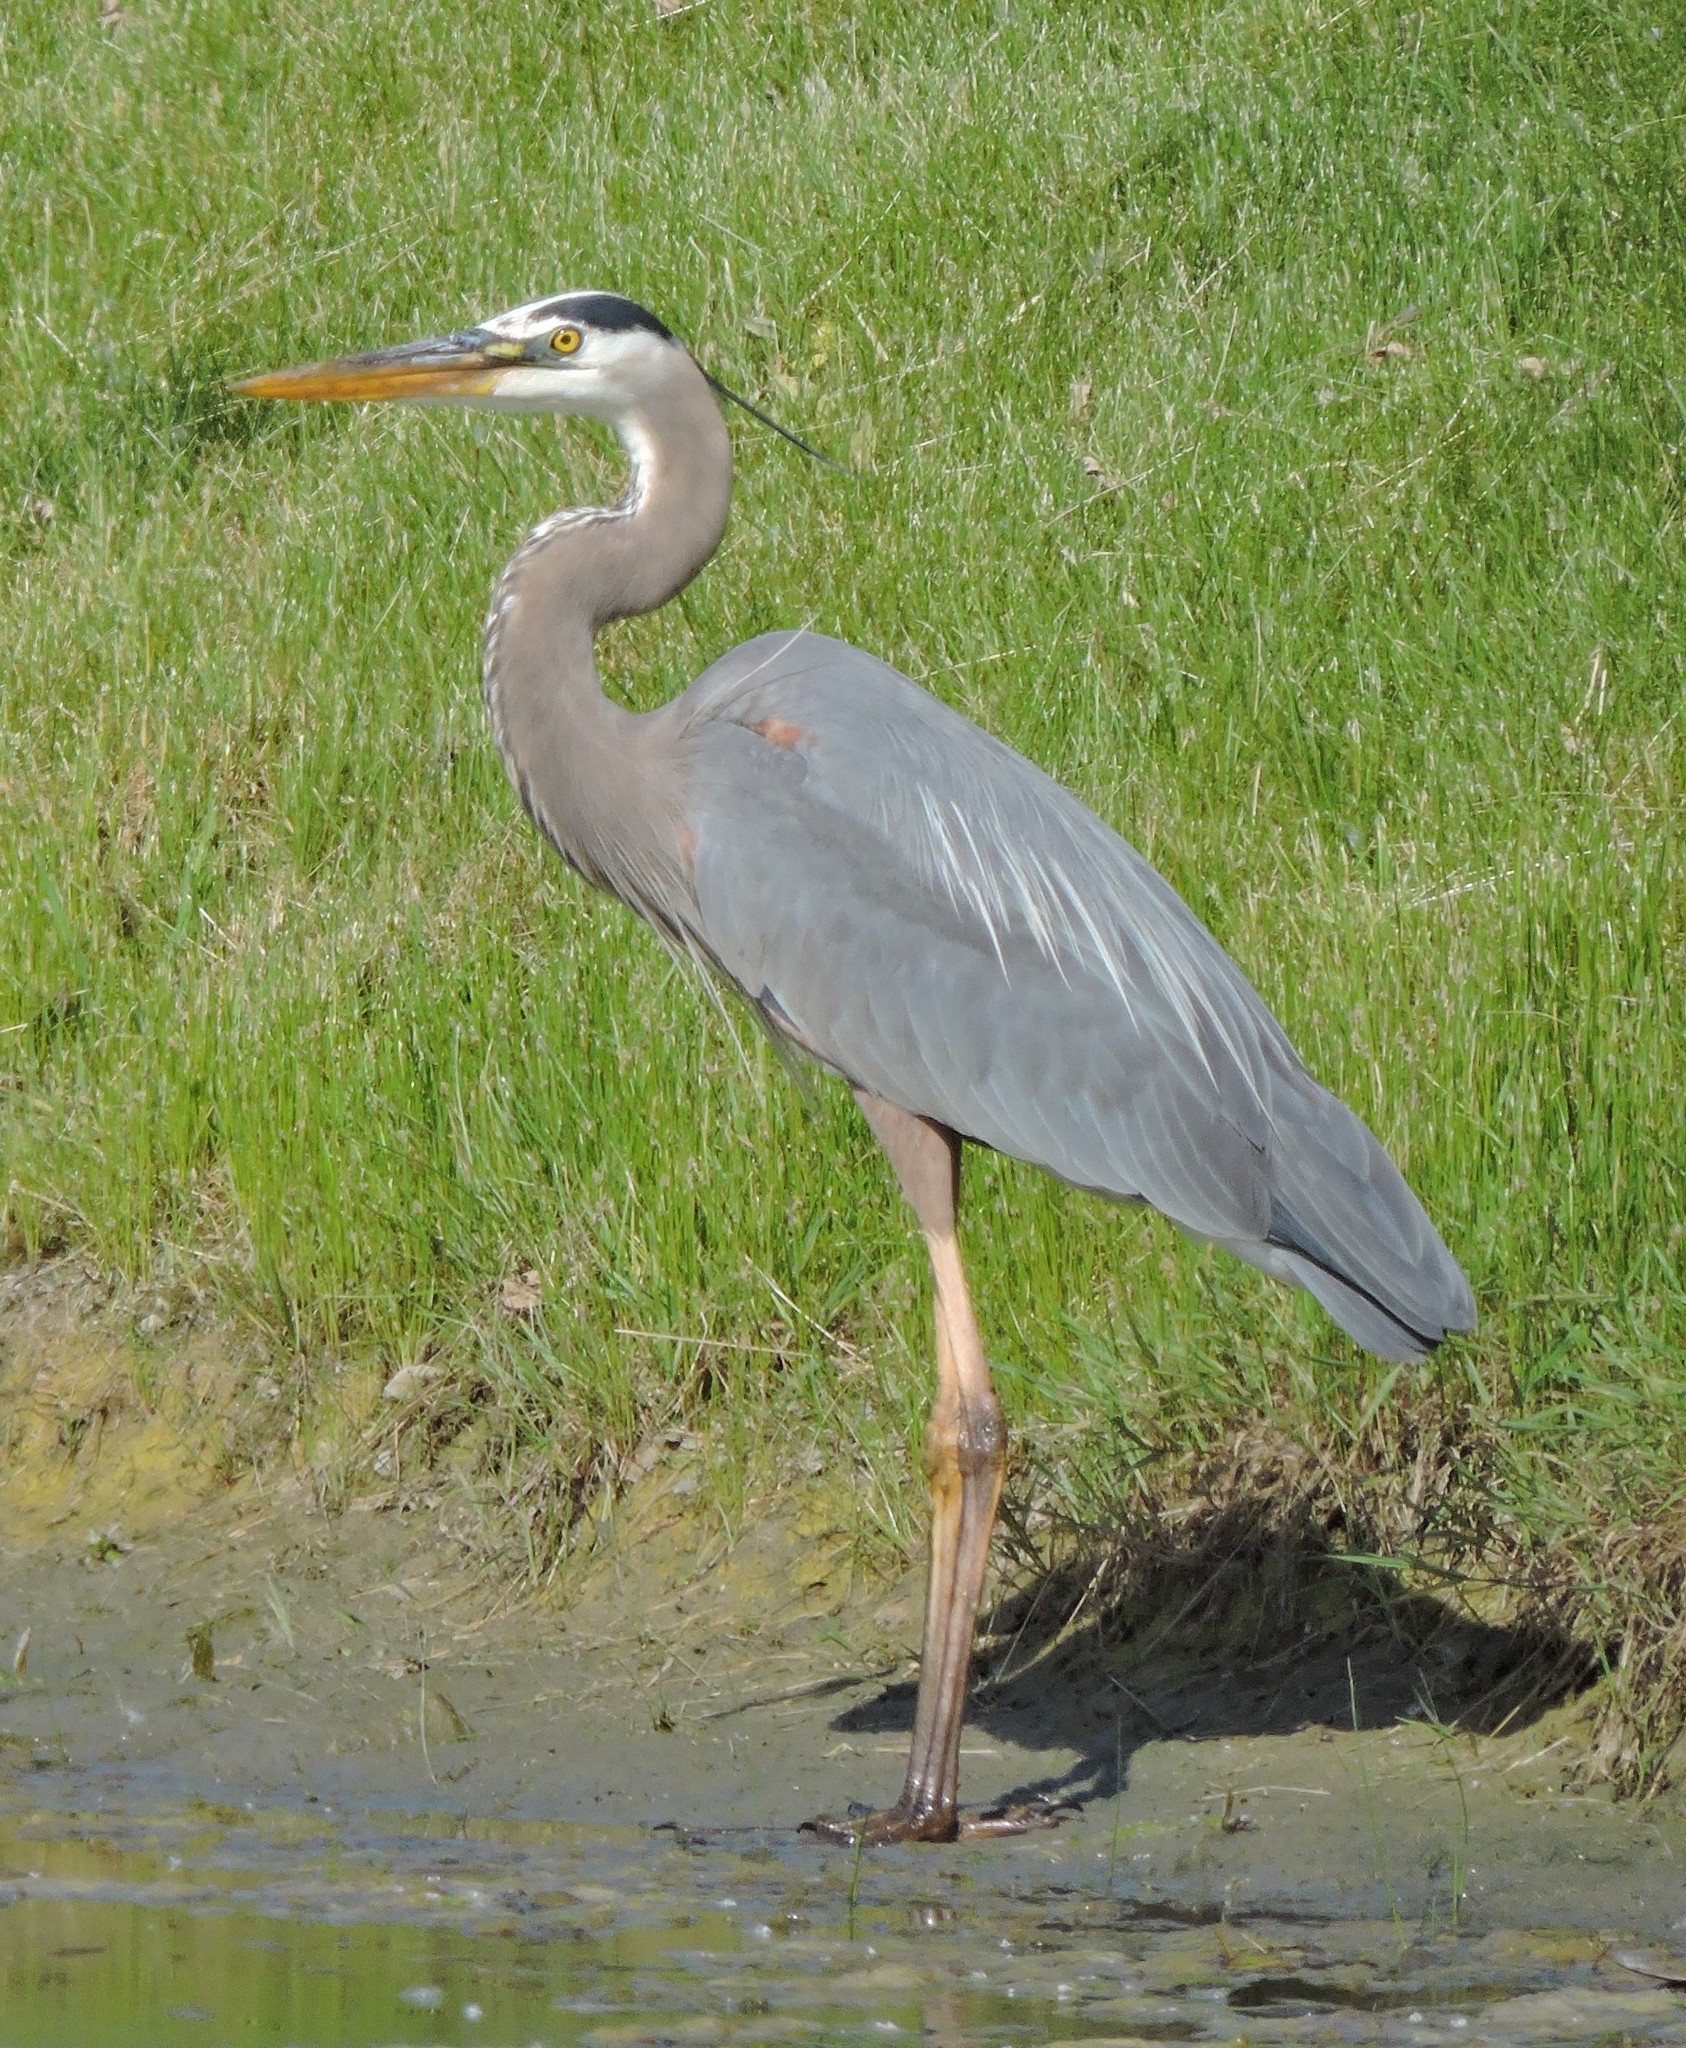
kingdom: Animalia
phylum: Chordata
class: Aves
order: Pelecaniformes
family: Ardeidae
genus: Ardea
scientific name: Ardea herodias
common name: Great blue heron
